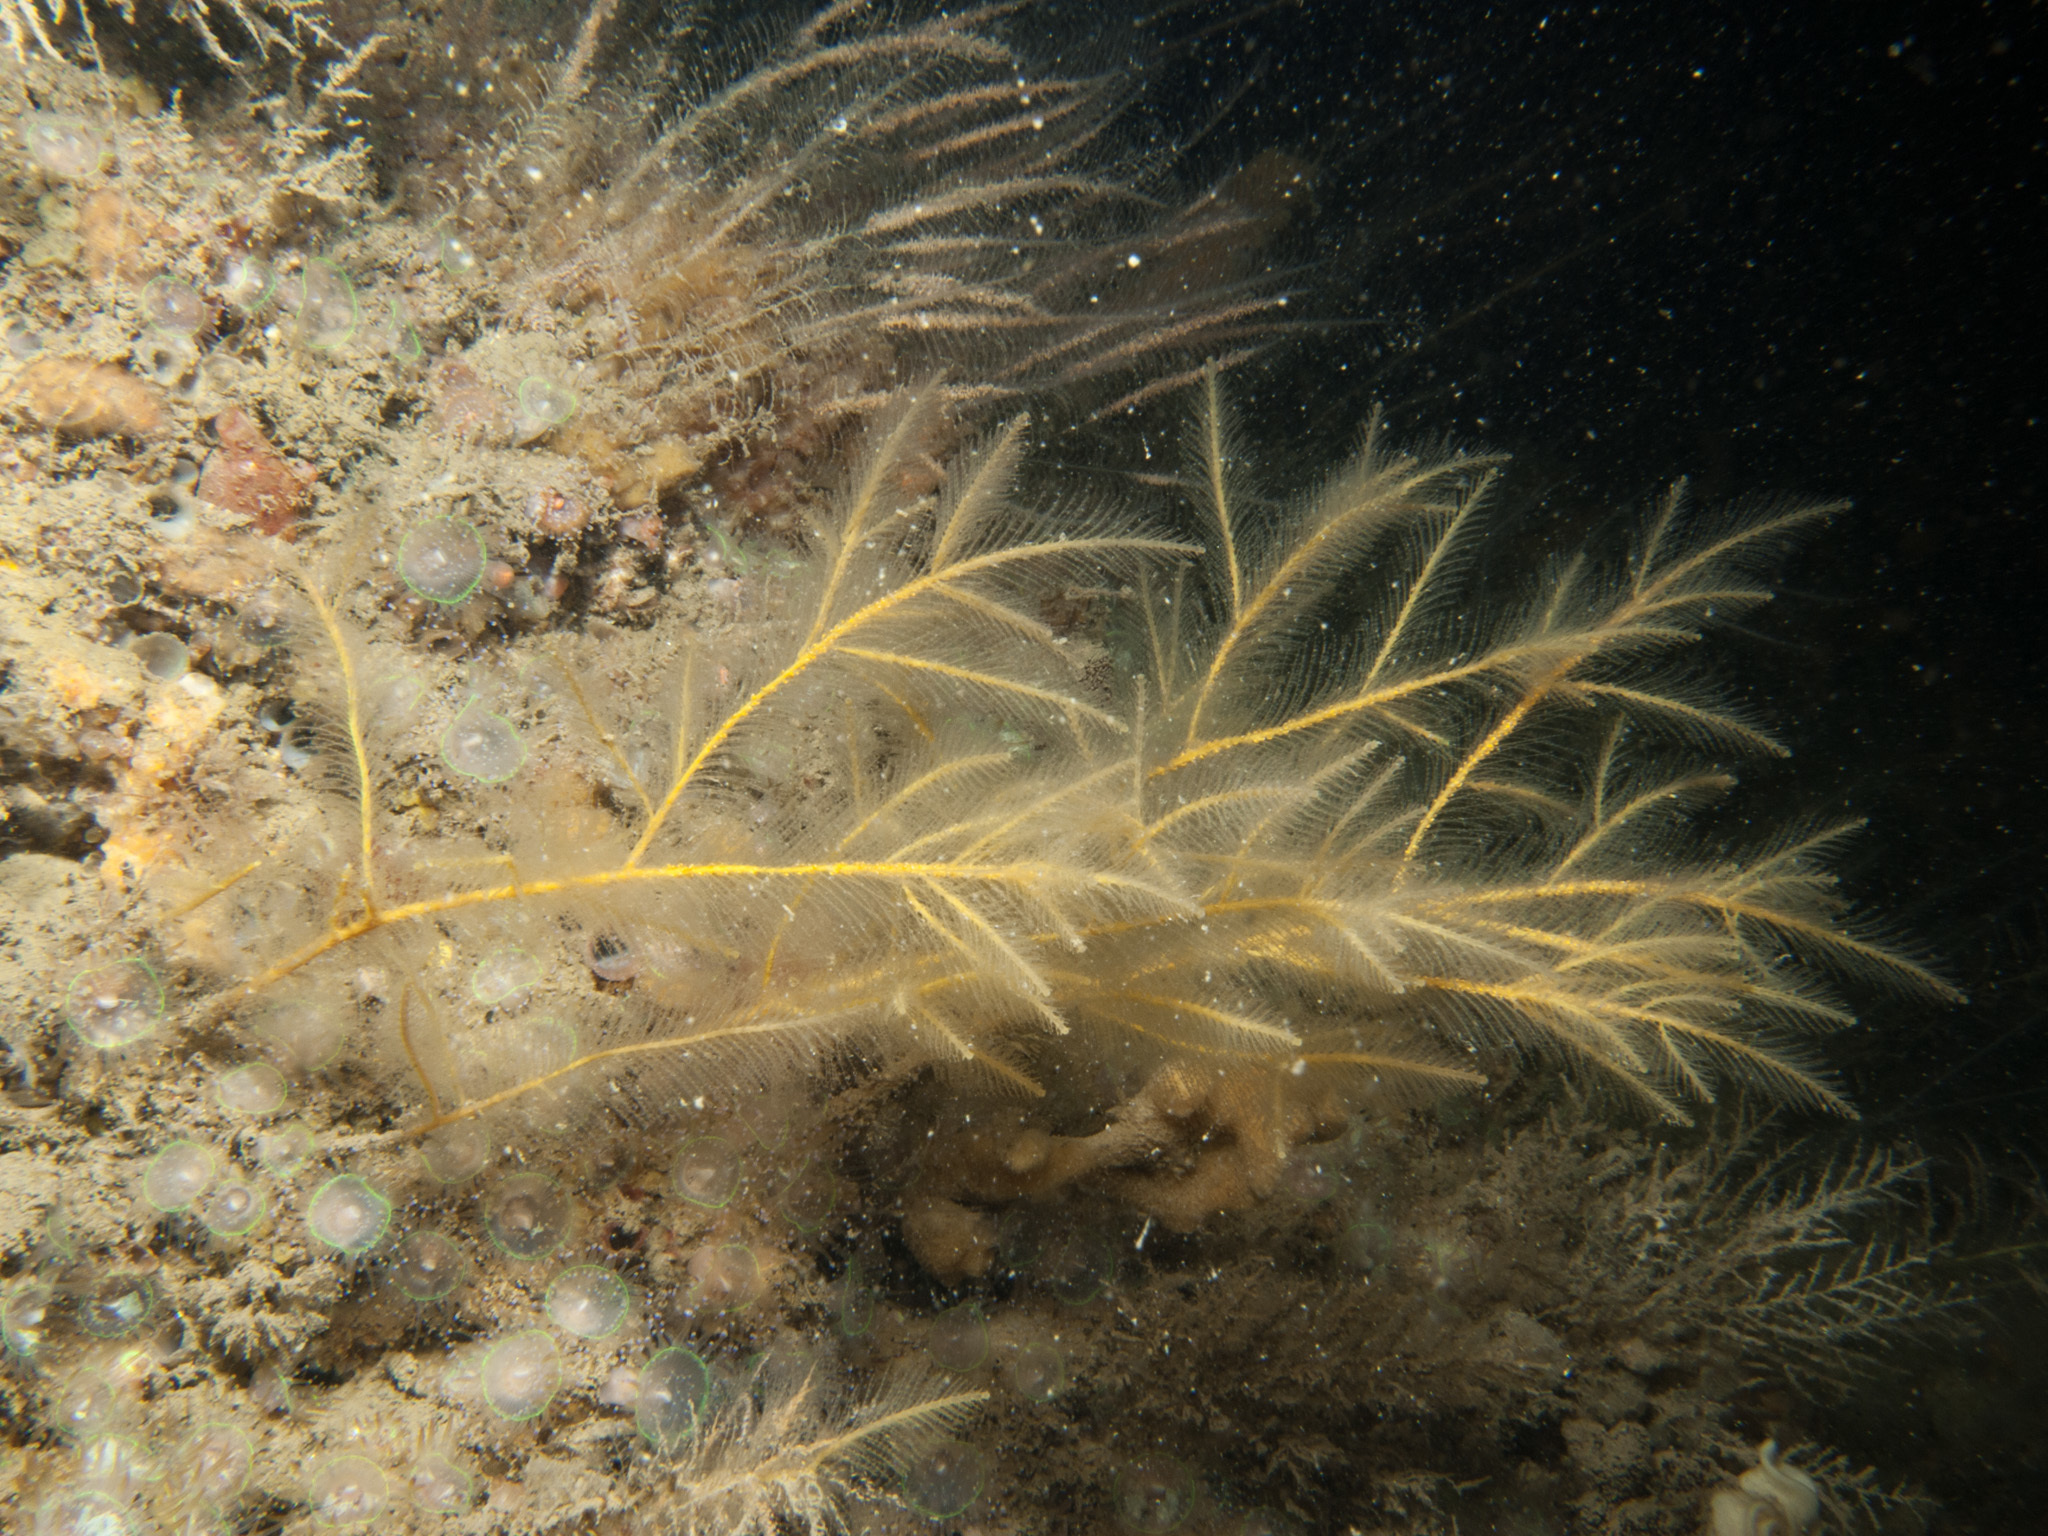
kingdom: Animalia
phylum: Cnidaria
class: Hydrozoa
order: Leptothecata
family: Plumulariidae
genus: Nemertesia
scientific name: Nemertesia ramosa
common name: Hydroid
